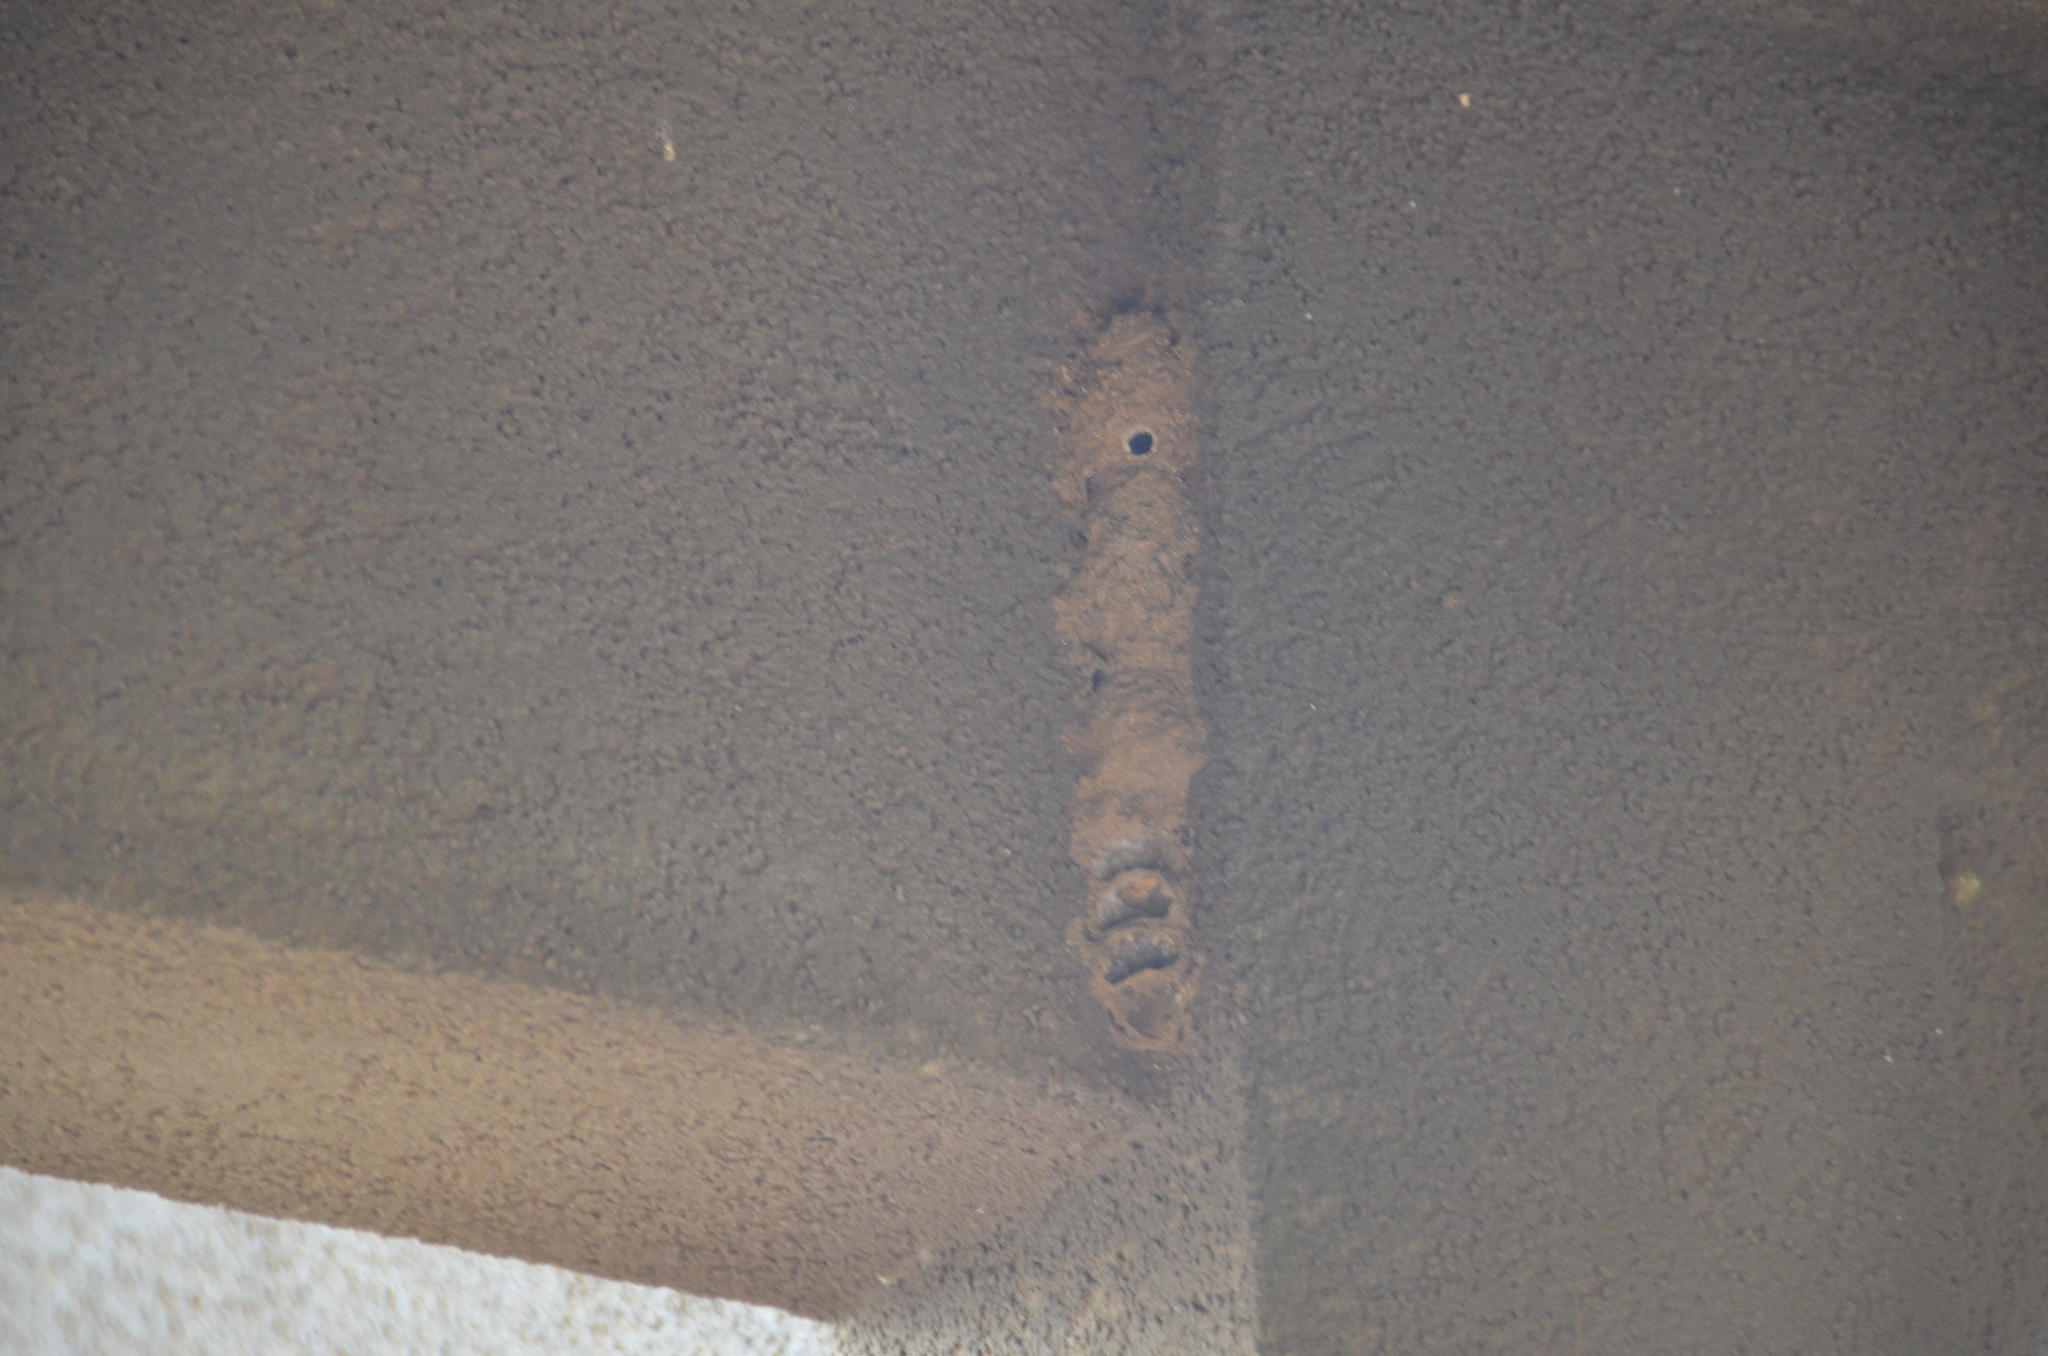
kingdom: Animalia
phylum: Arthropoda
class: Insecta
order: Hymenoptera
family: Eumenidae
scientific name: Eumenidae
